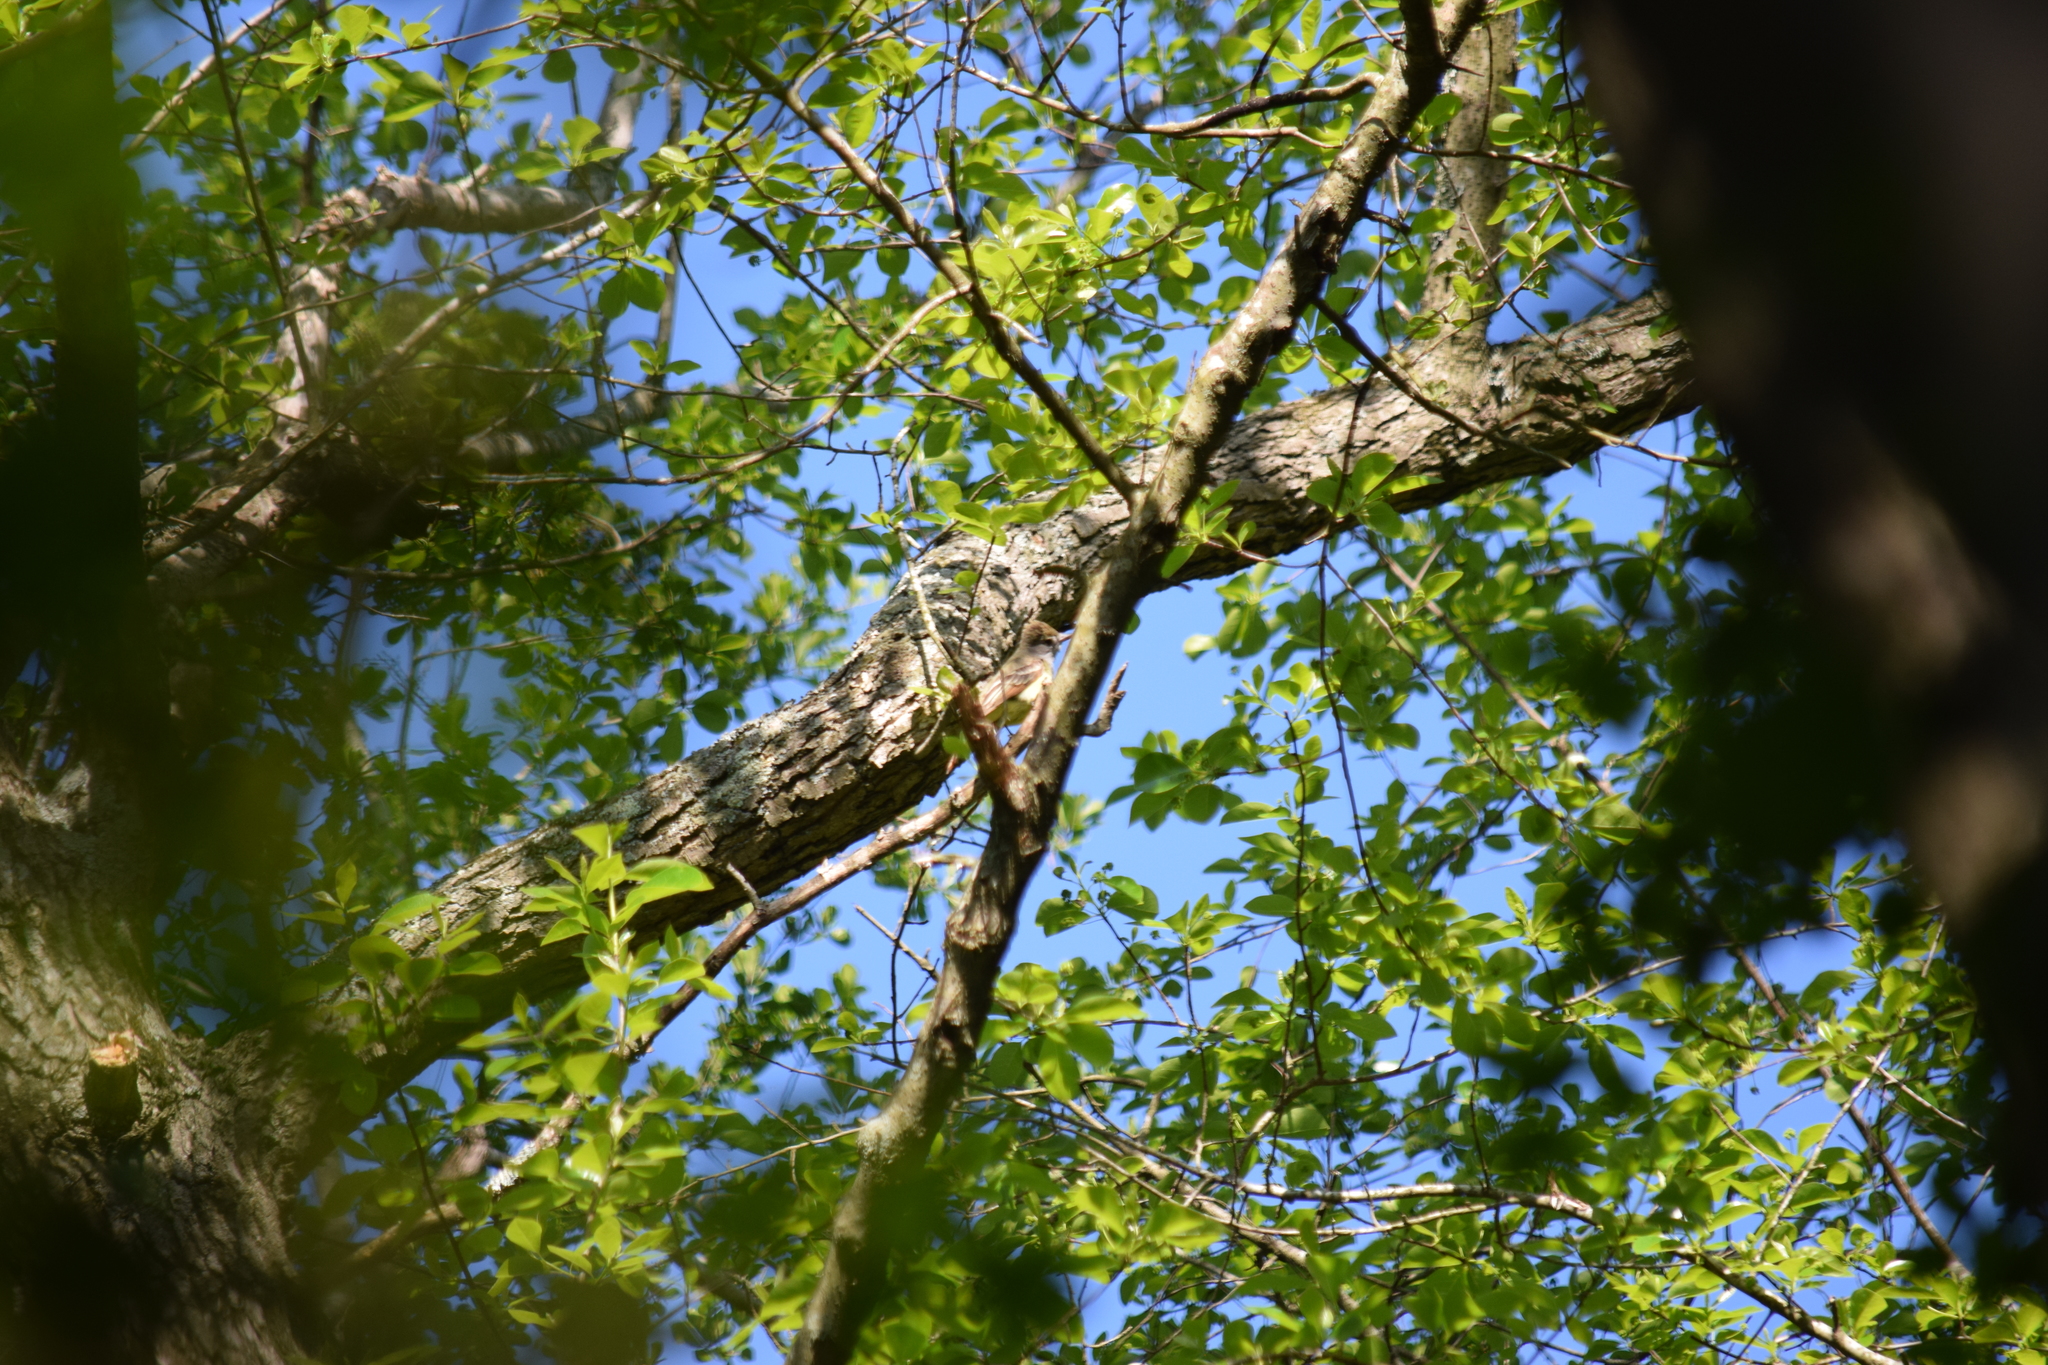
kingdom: Animalia
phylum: Chordata
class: Aves
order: Passeriformes
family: Tyrannidae
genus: Myiarchus
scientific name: Myiarchus crinitus
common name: Great crested flycatcher
